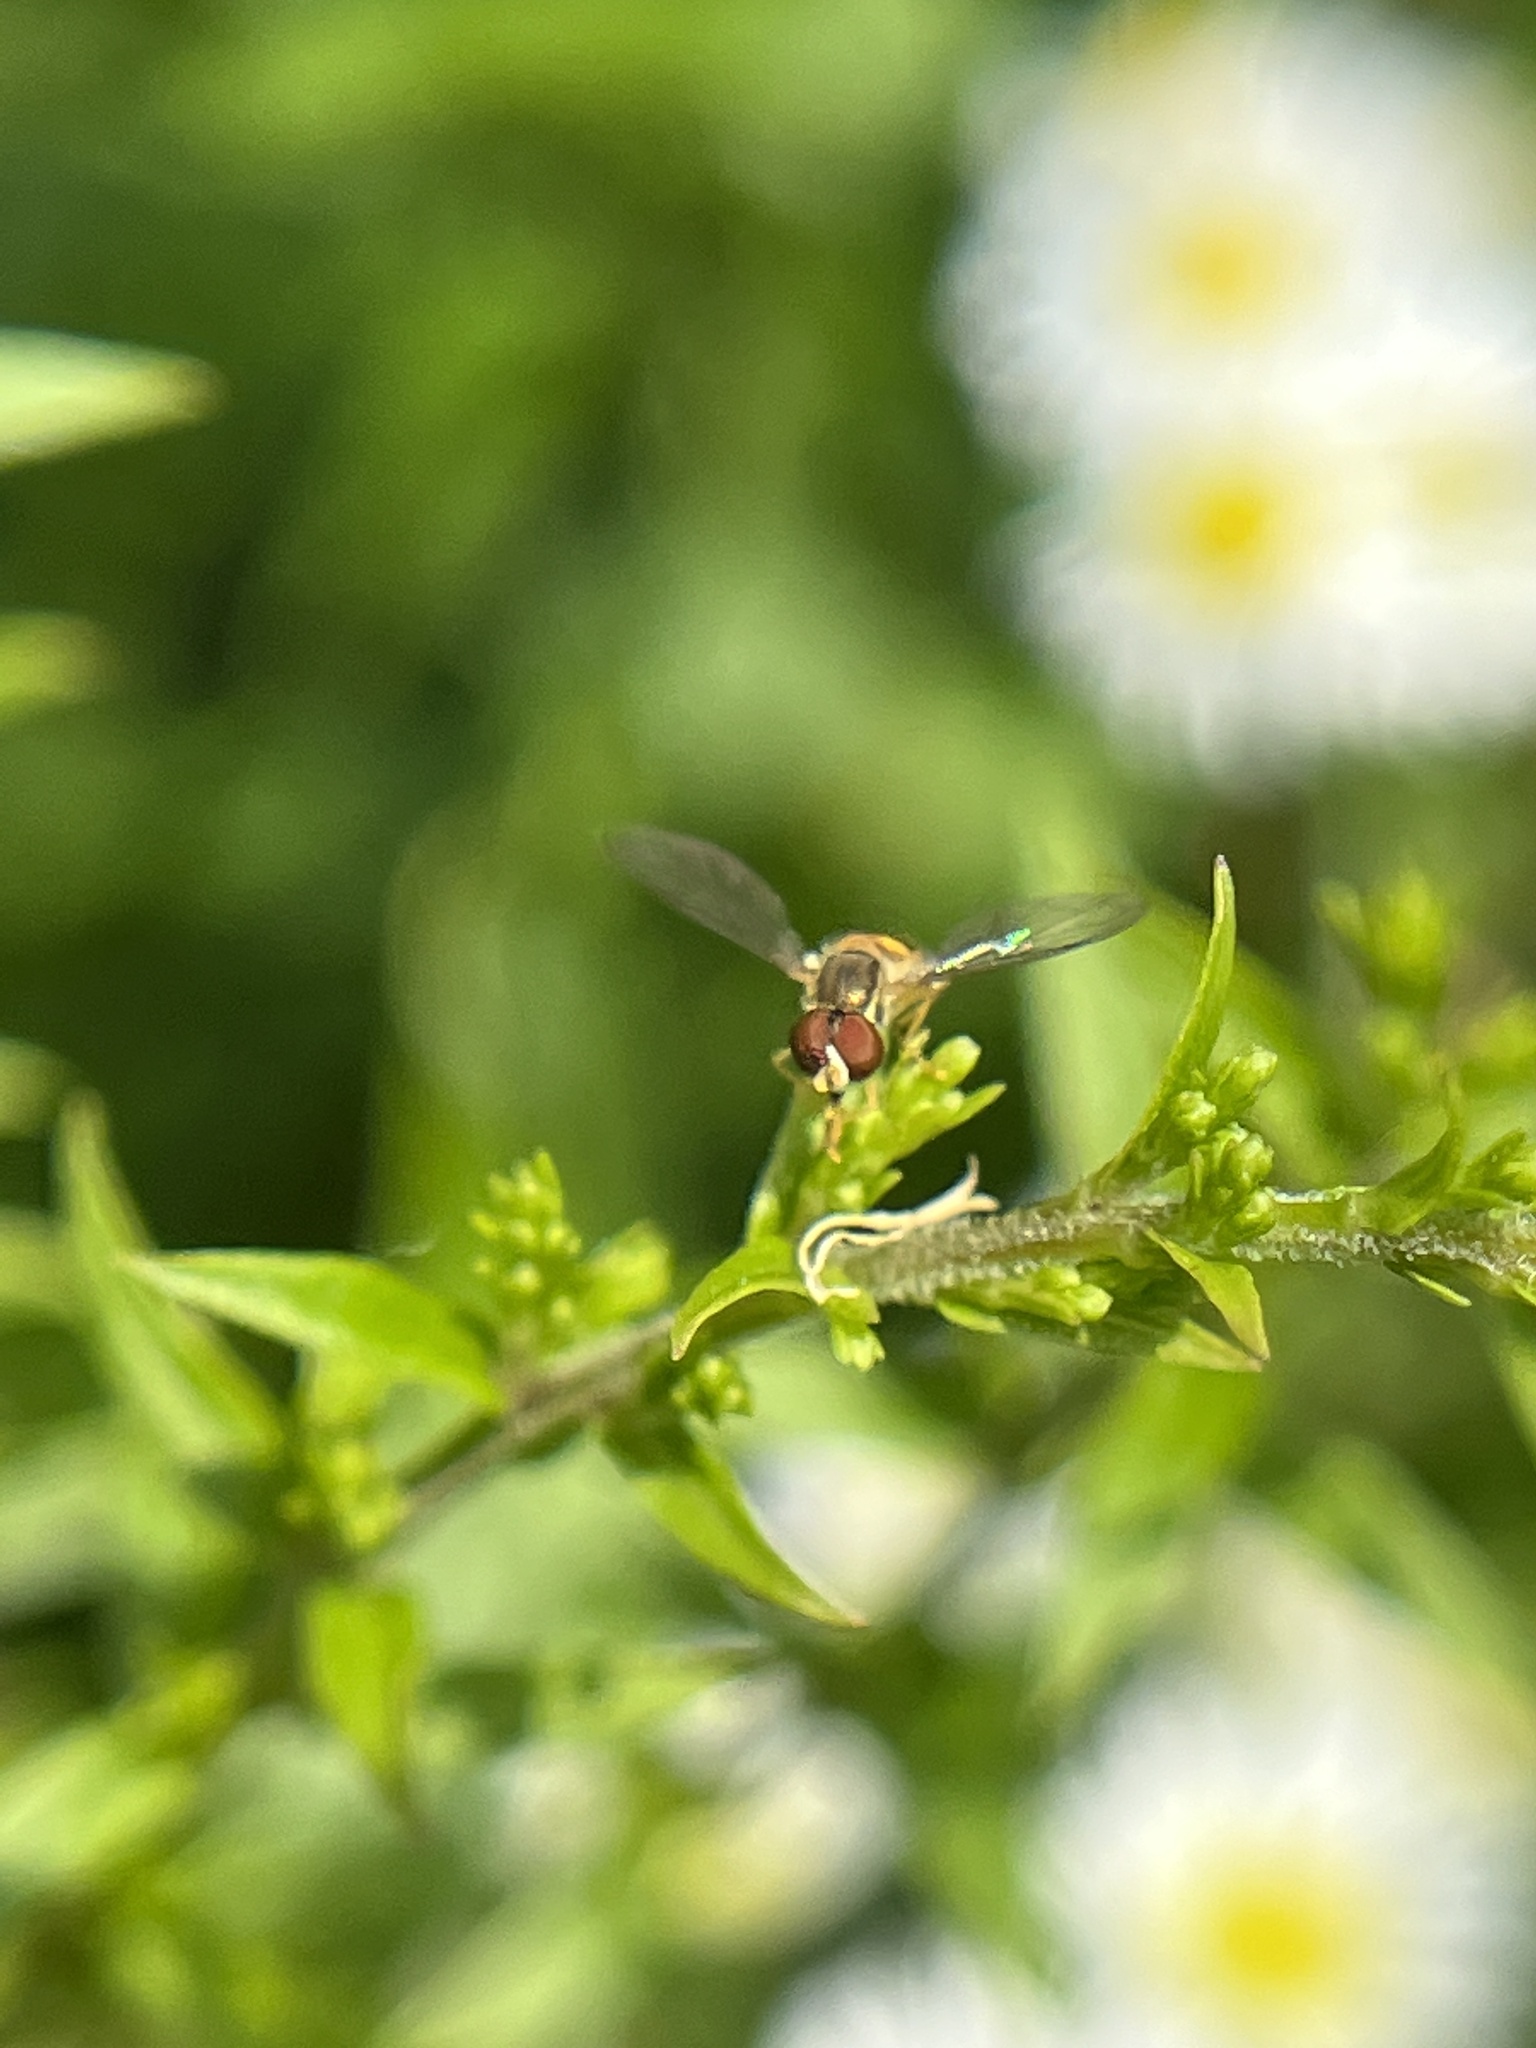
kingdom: Animalia
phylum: Arthropoda
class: Insecta
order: Diptera
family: Syrphidae
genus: Toxomerus
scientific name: Toxomerus
